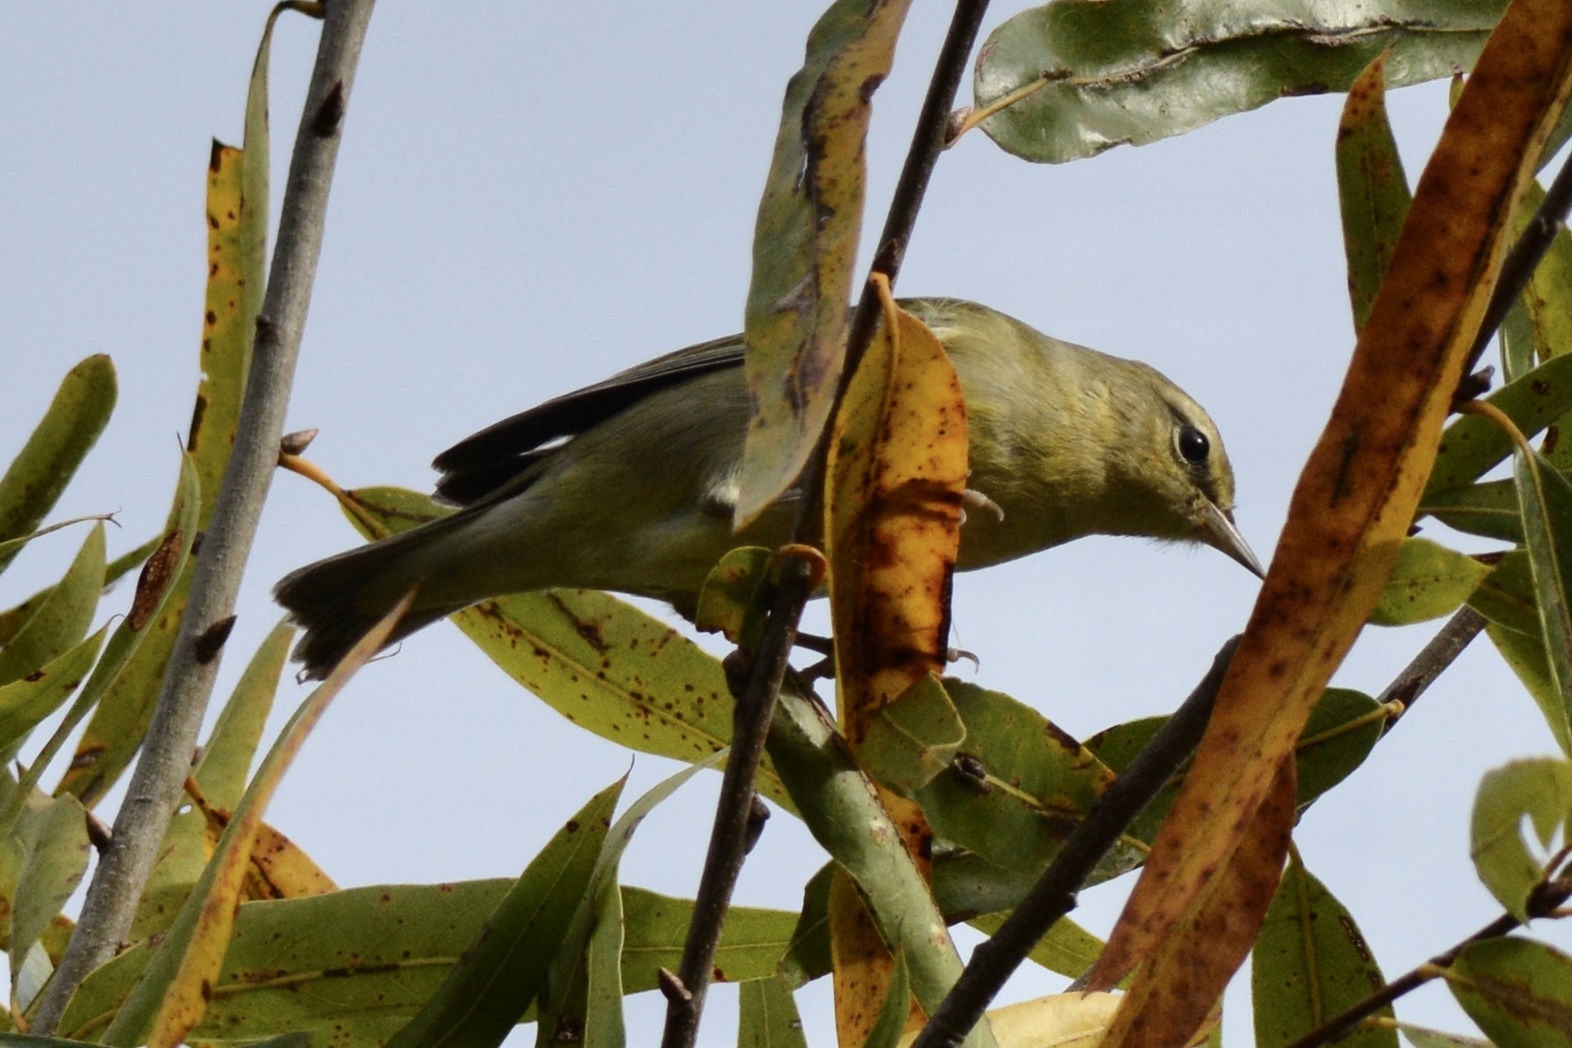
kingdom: Animalia
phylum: Chordata
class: Aves
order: Passeriformes
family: Parulidae
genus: Leiothlypis
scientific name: Leiothlypis celata
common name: Orange-crowned warbler
